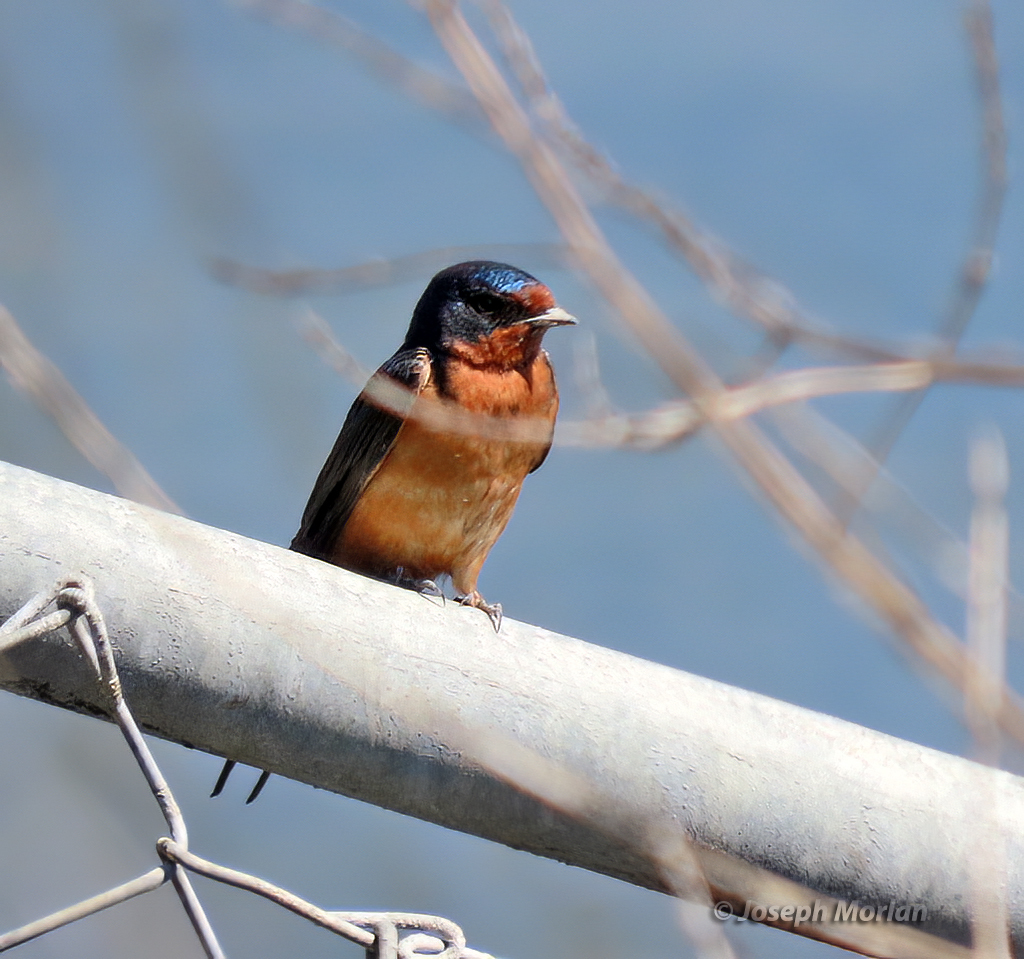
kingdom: Animalia
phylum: Chordata
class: Aves
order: Passeriformes
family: Hirundinidae
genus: Hirundo
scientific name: Hirundo rustica
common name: Barn swallow
